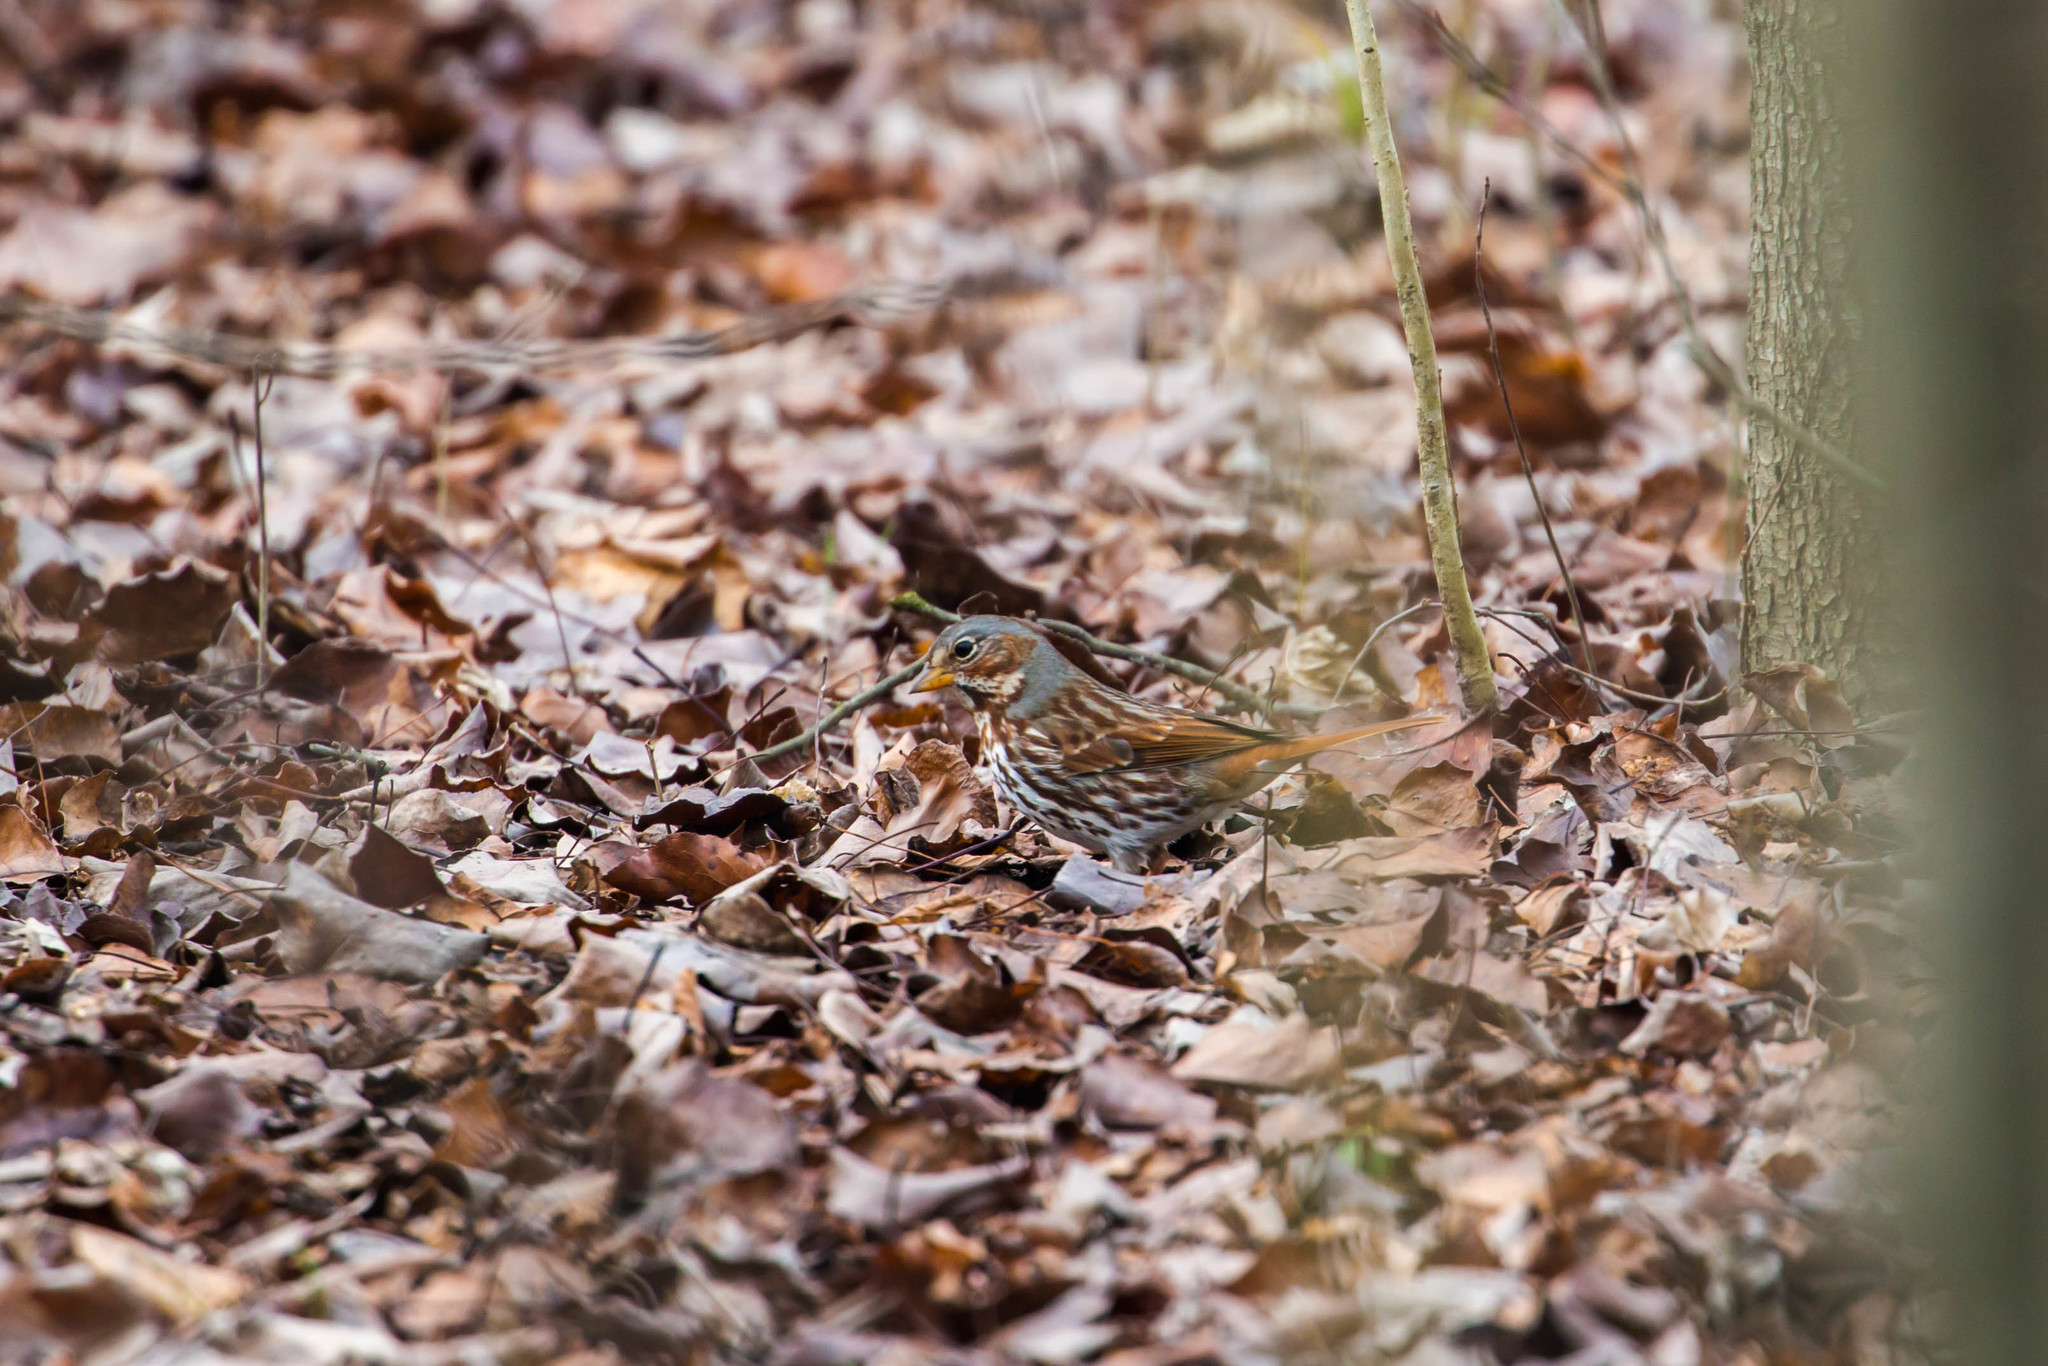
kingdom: Animalia
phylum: Chordata
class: Aves
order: Passeriformes
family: Passerellidae
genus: Passerella
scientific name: Passerella iliaca
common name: Fox sparrow
